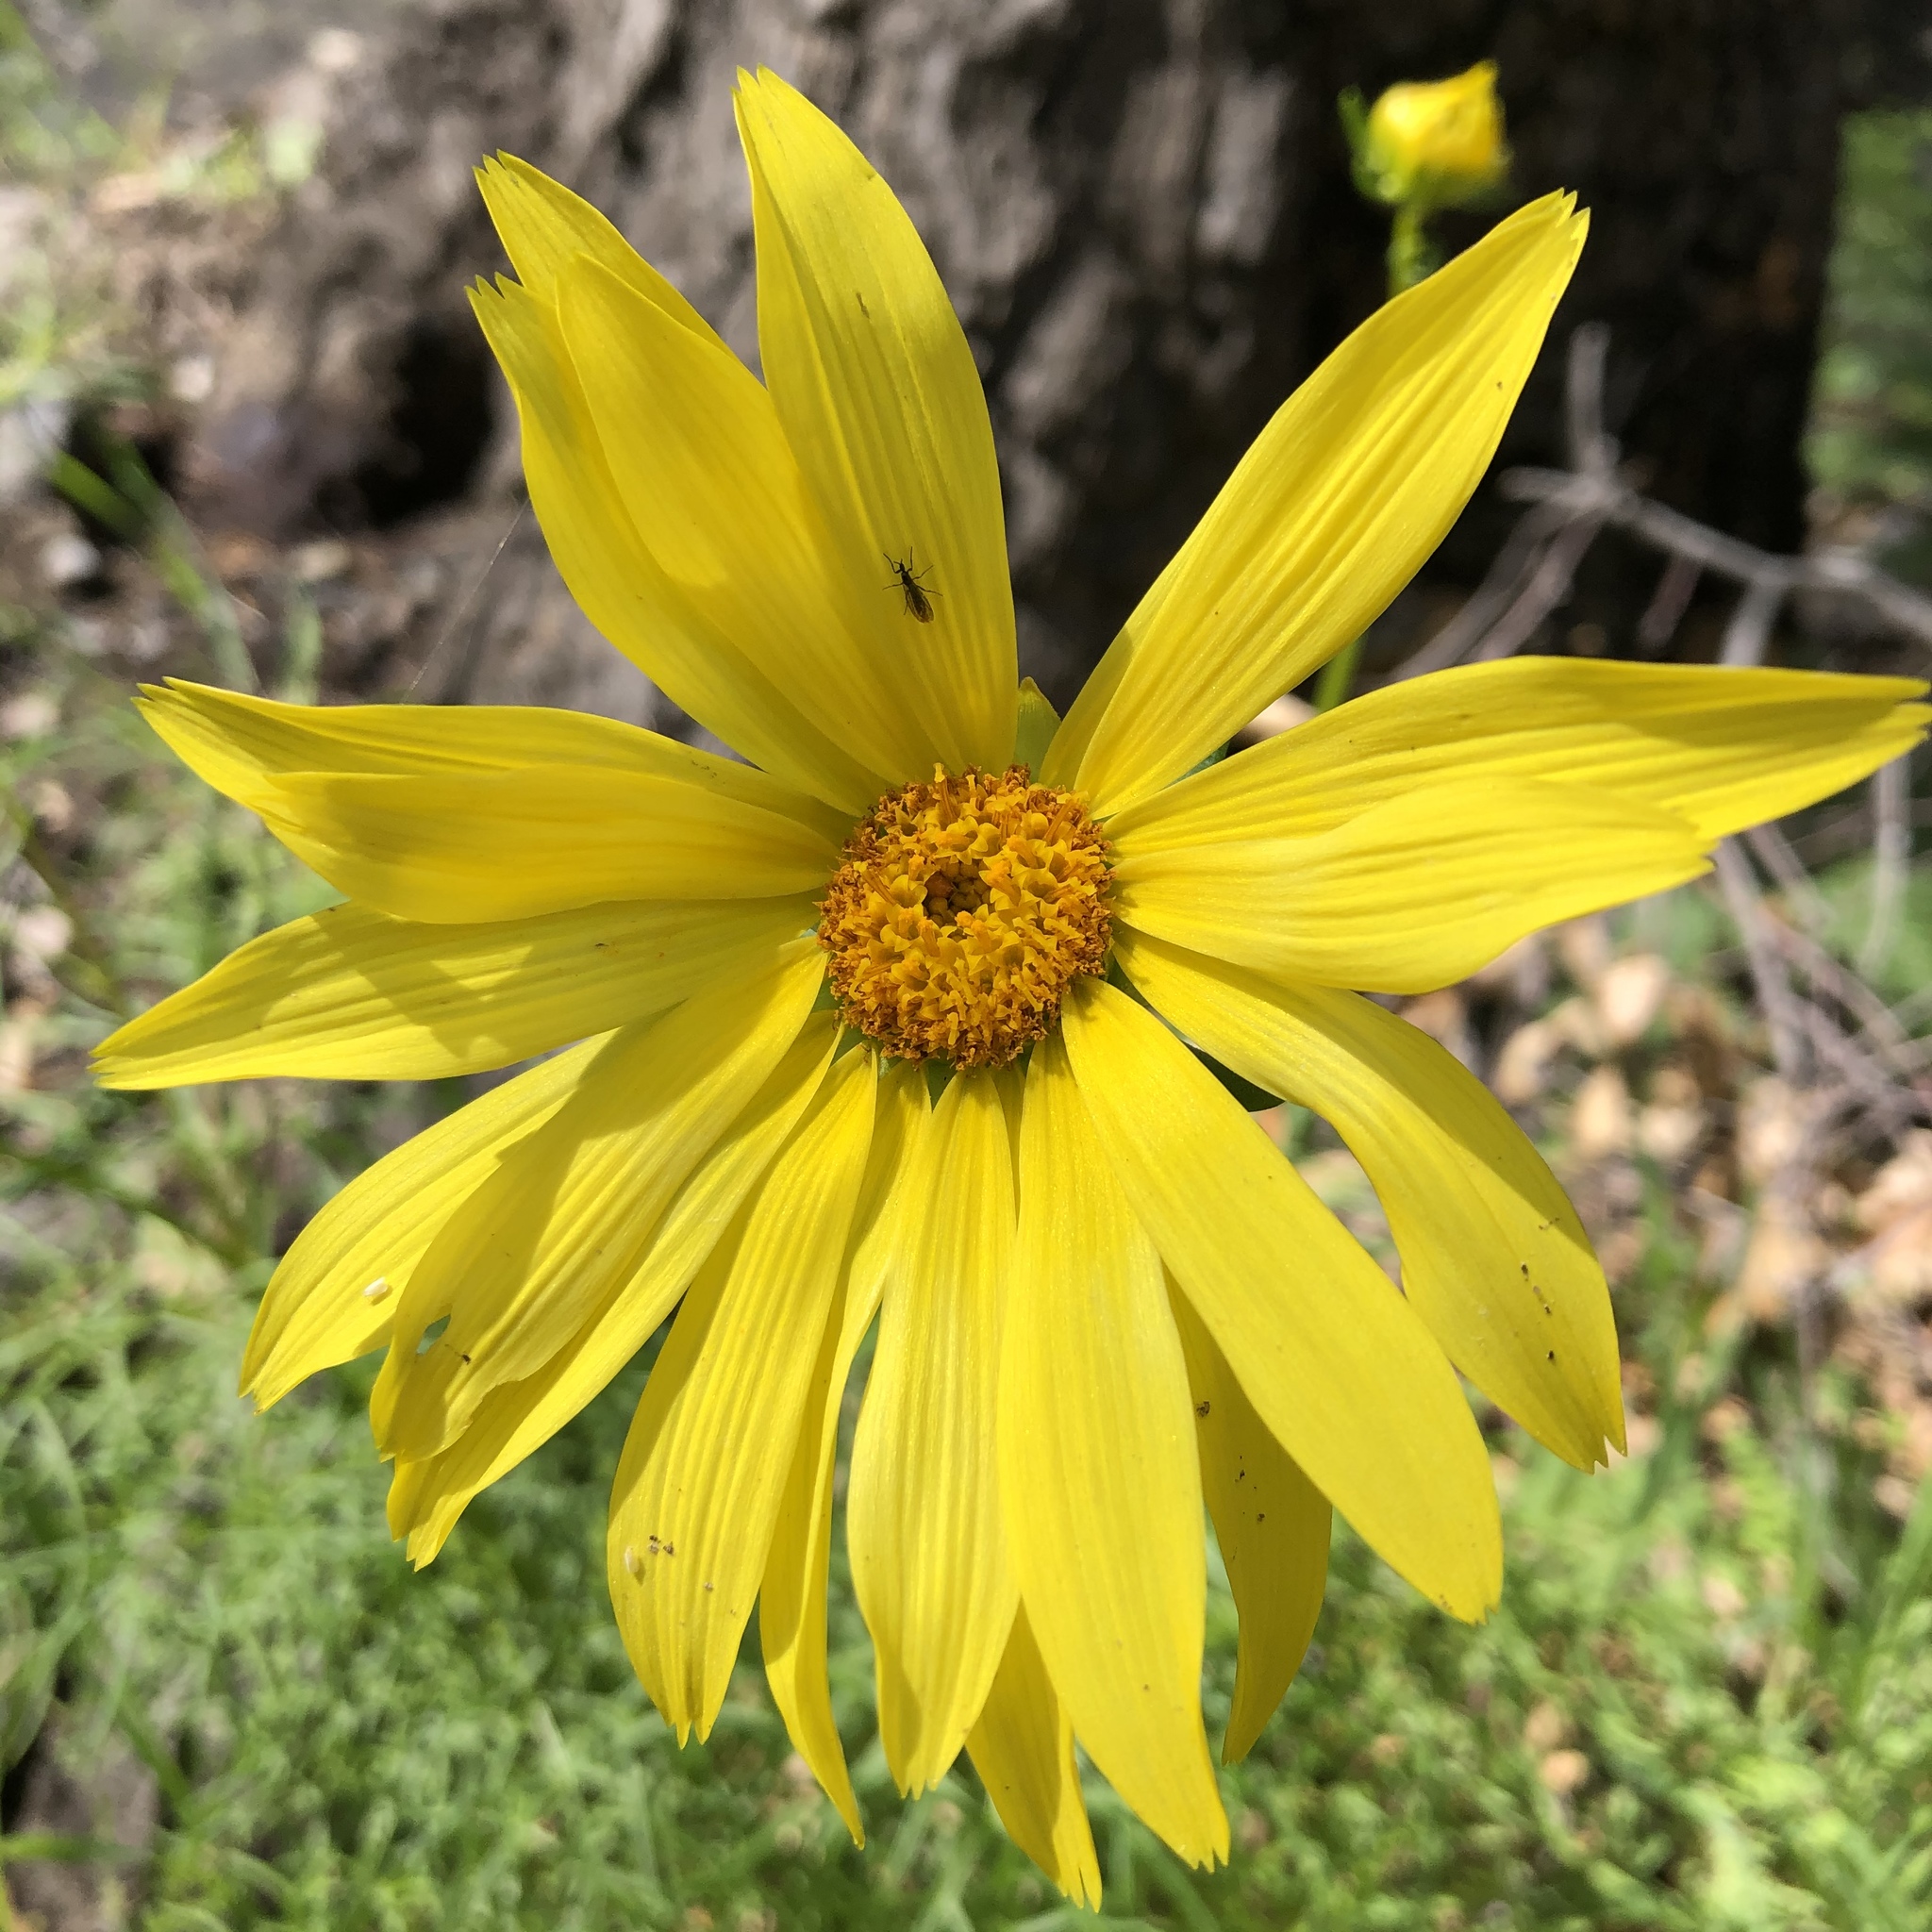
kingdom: Plantae
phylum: Tracheophyta
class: Magnoliopsida
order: Asterales
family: Asteraceae
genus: Coreopsis
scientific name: Coreopsis maritima
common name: Sea-dahlia
